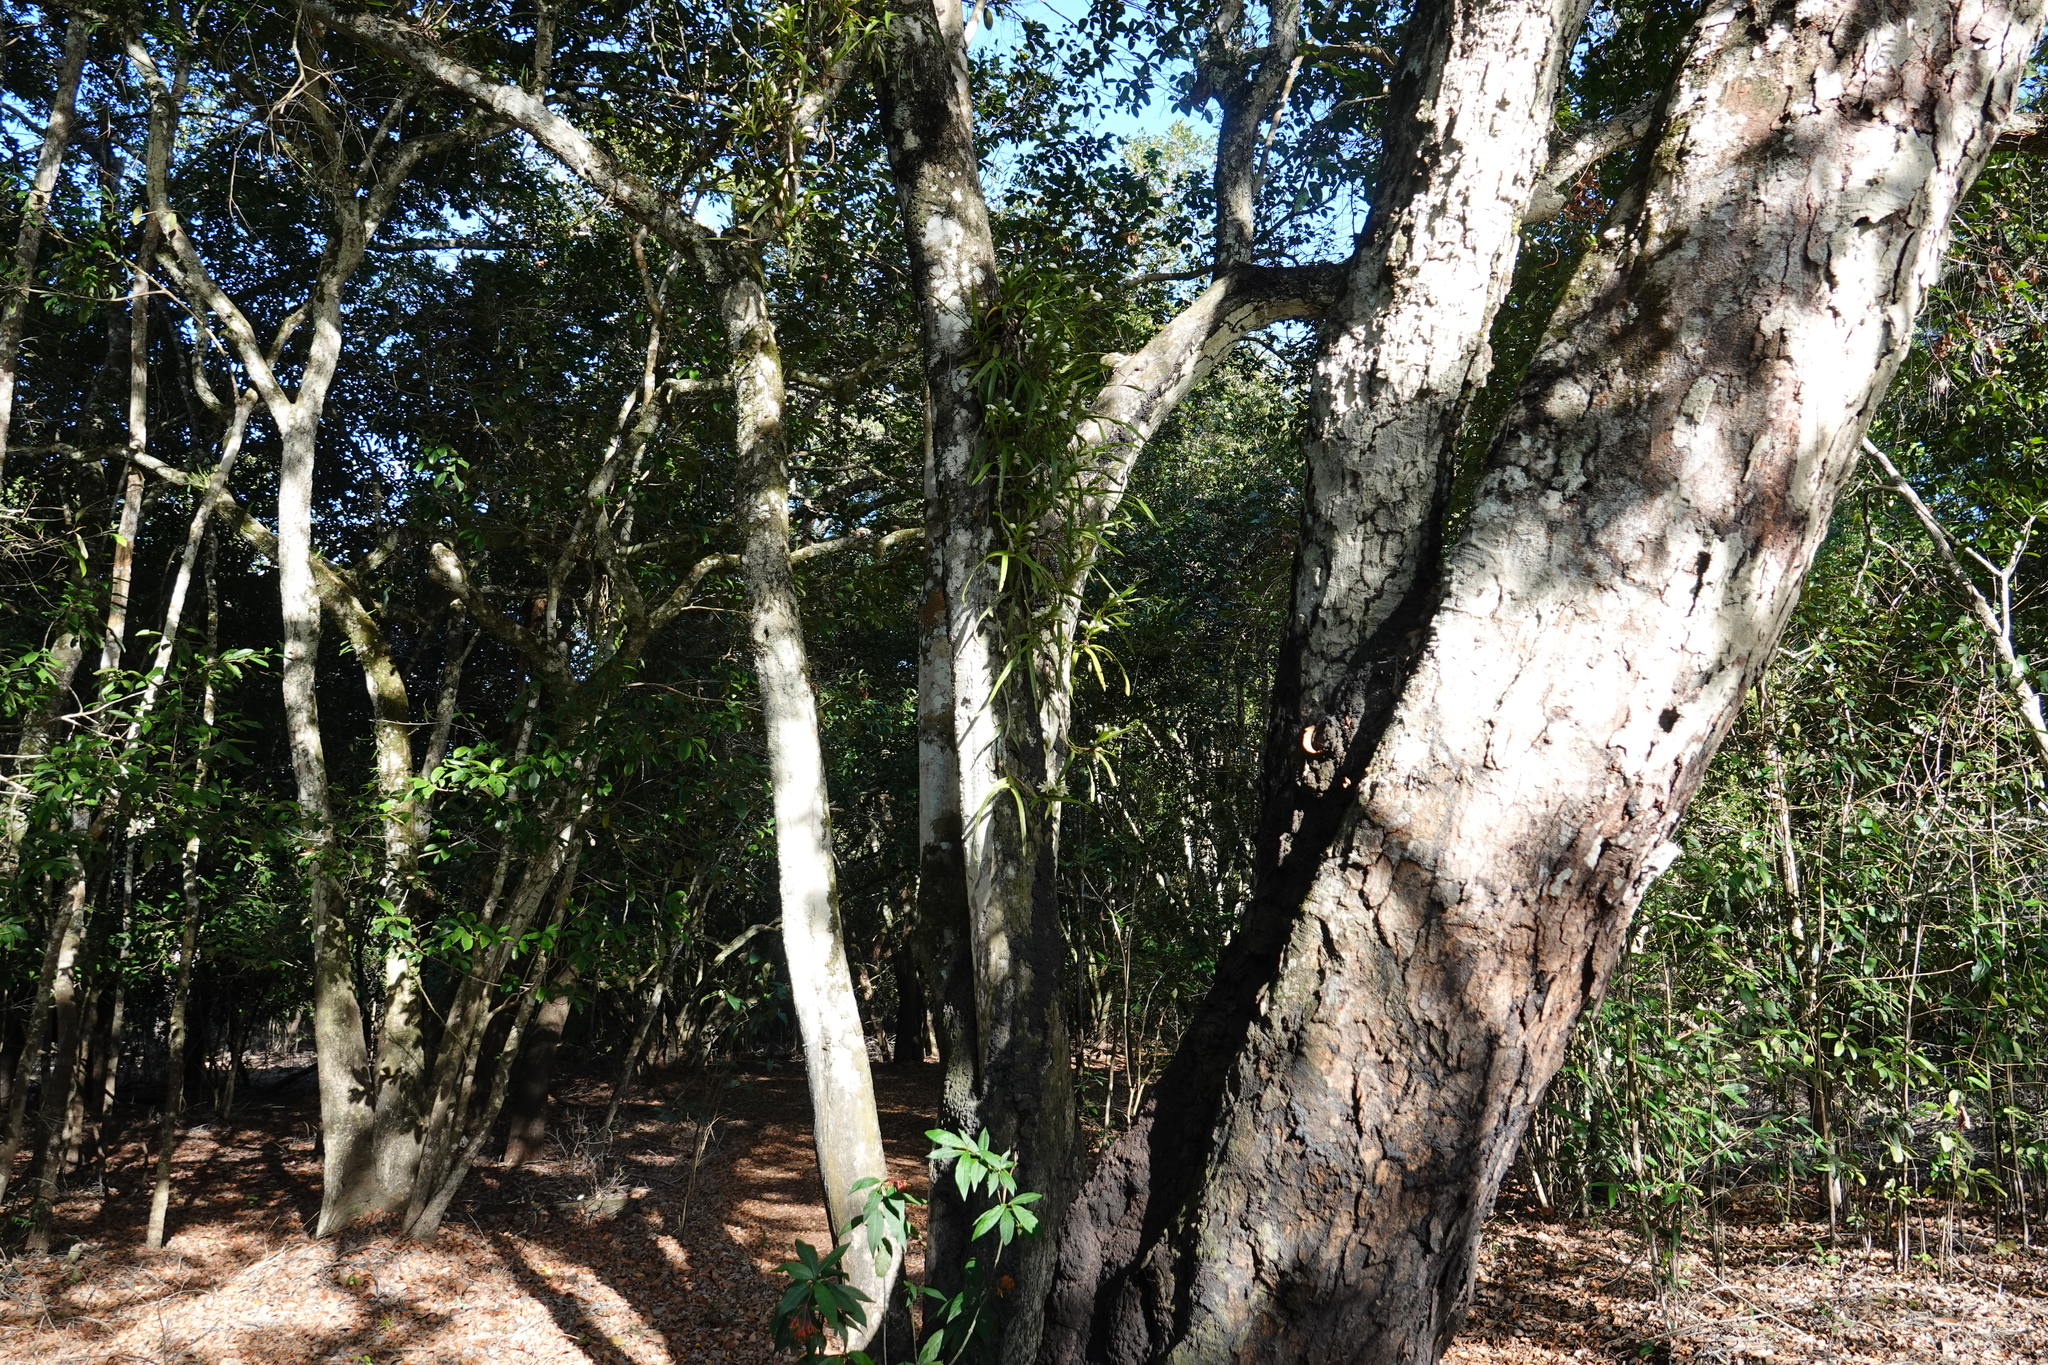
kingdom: Plantae
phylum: Tracheophyta
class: Liliopsida
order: Asparagales
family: Orchidaceae
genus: Maxillaria
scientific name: Maxillaria ochroleuca
